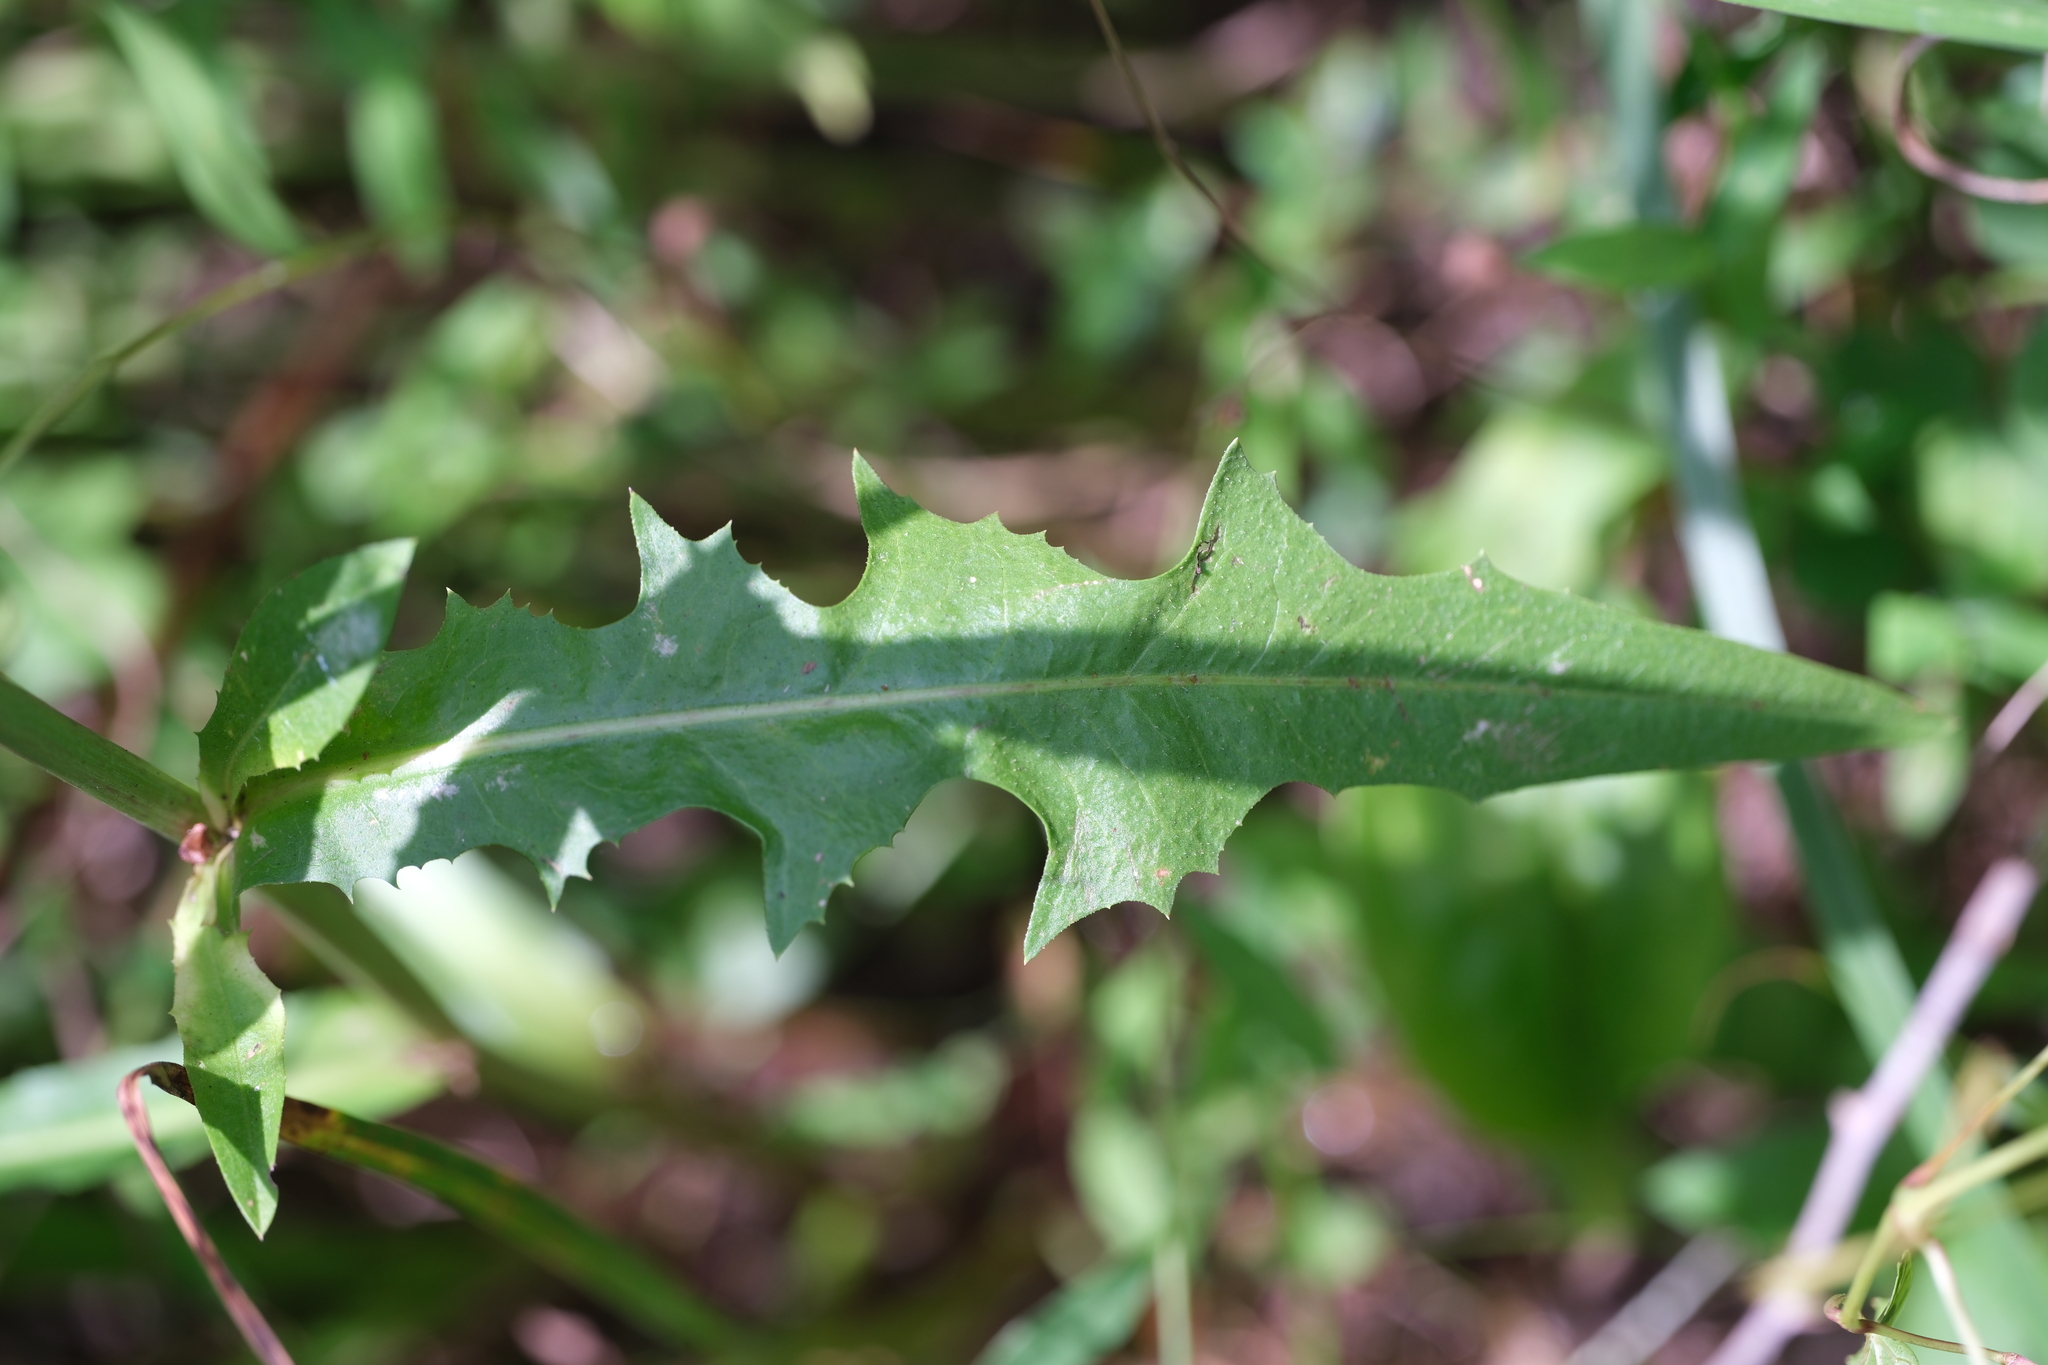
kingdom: Plantae
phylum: Tracheophyta
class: Magnoliopsida
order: Asterales
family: Asteraceae
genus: Cichorium
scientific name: Cichorium intybus
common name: Chicory
